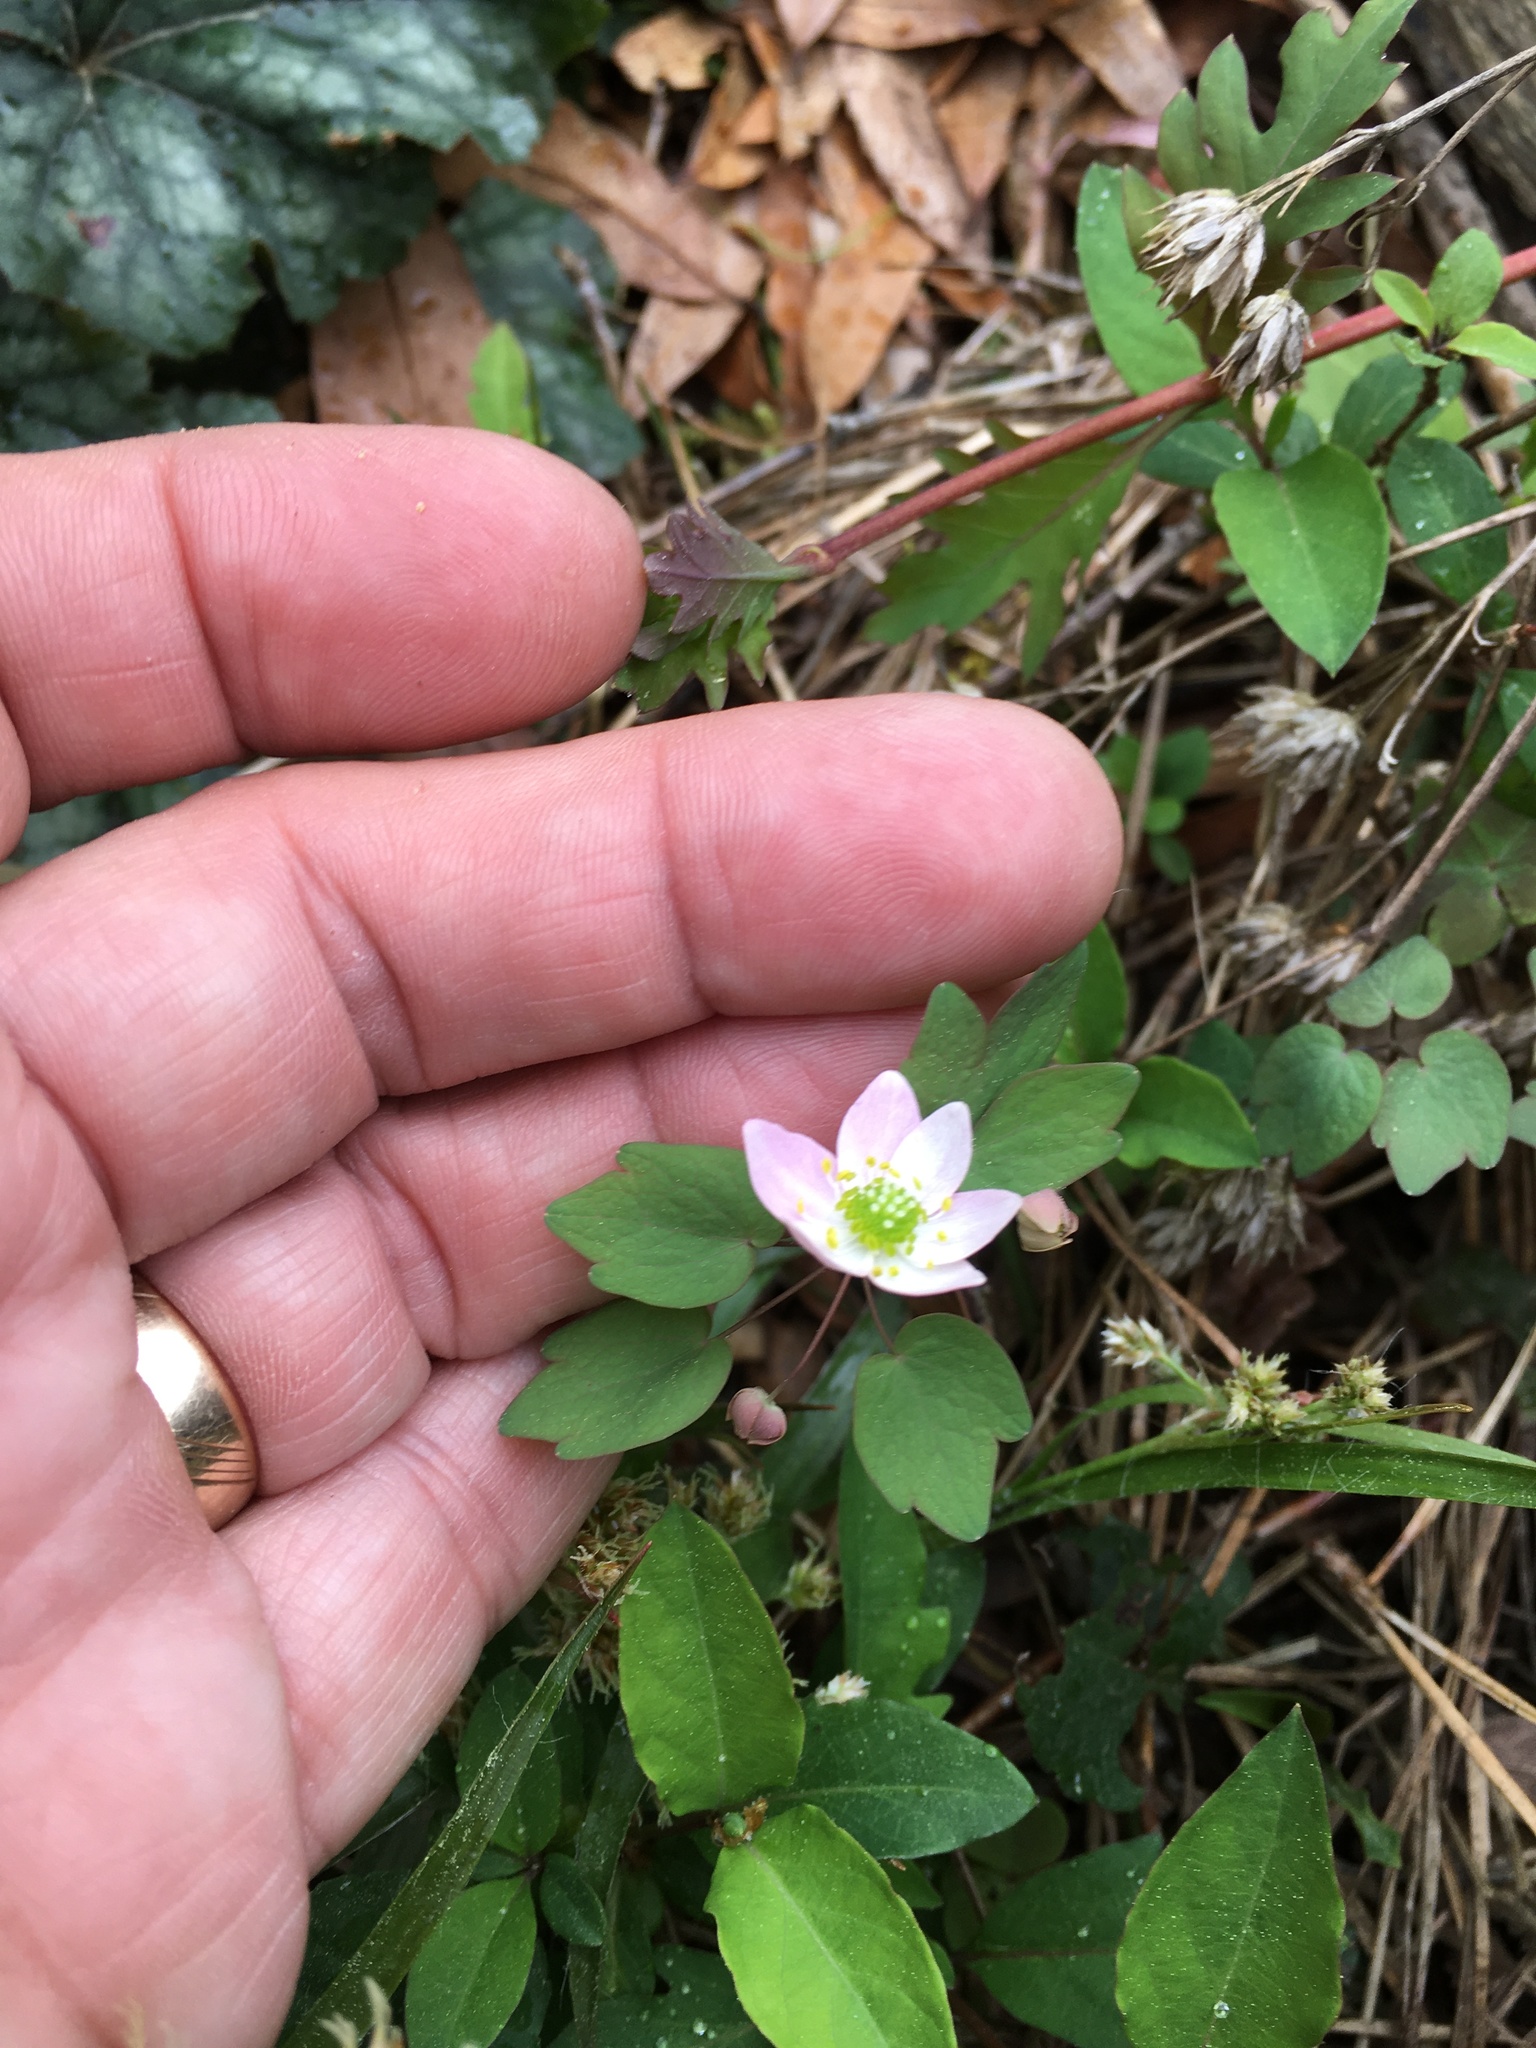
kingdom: Plantae
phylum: Tracheophyta
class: Magnoliopsida
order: Ranunculales
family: Ranunculaceae
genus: Thalictrum
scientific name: Thalictrum thalictroides
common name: Rue-anemone
